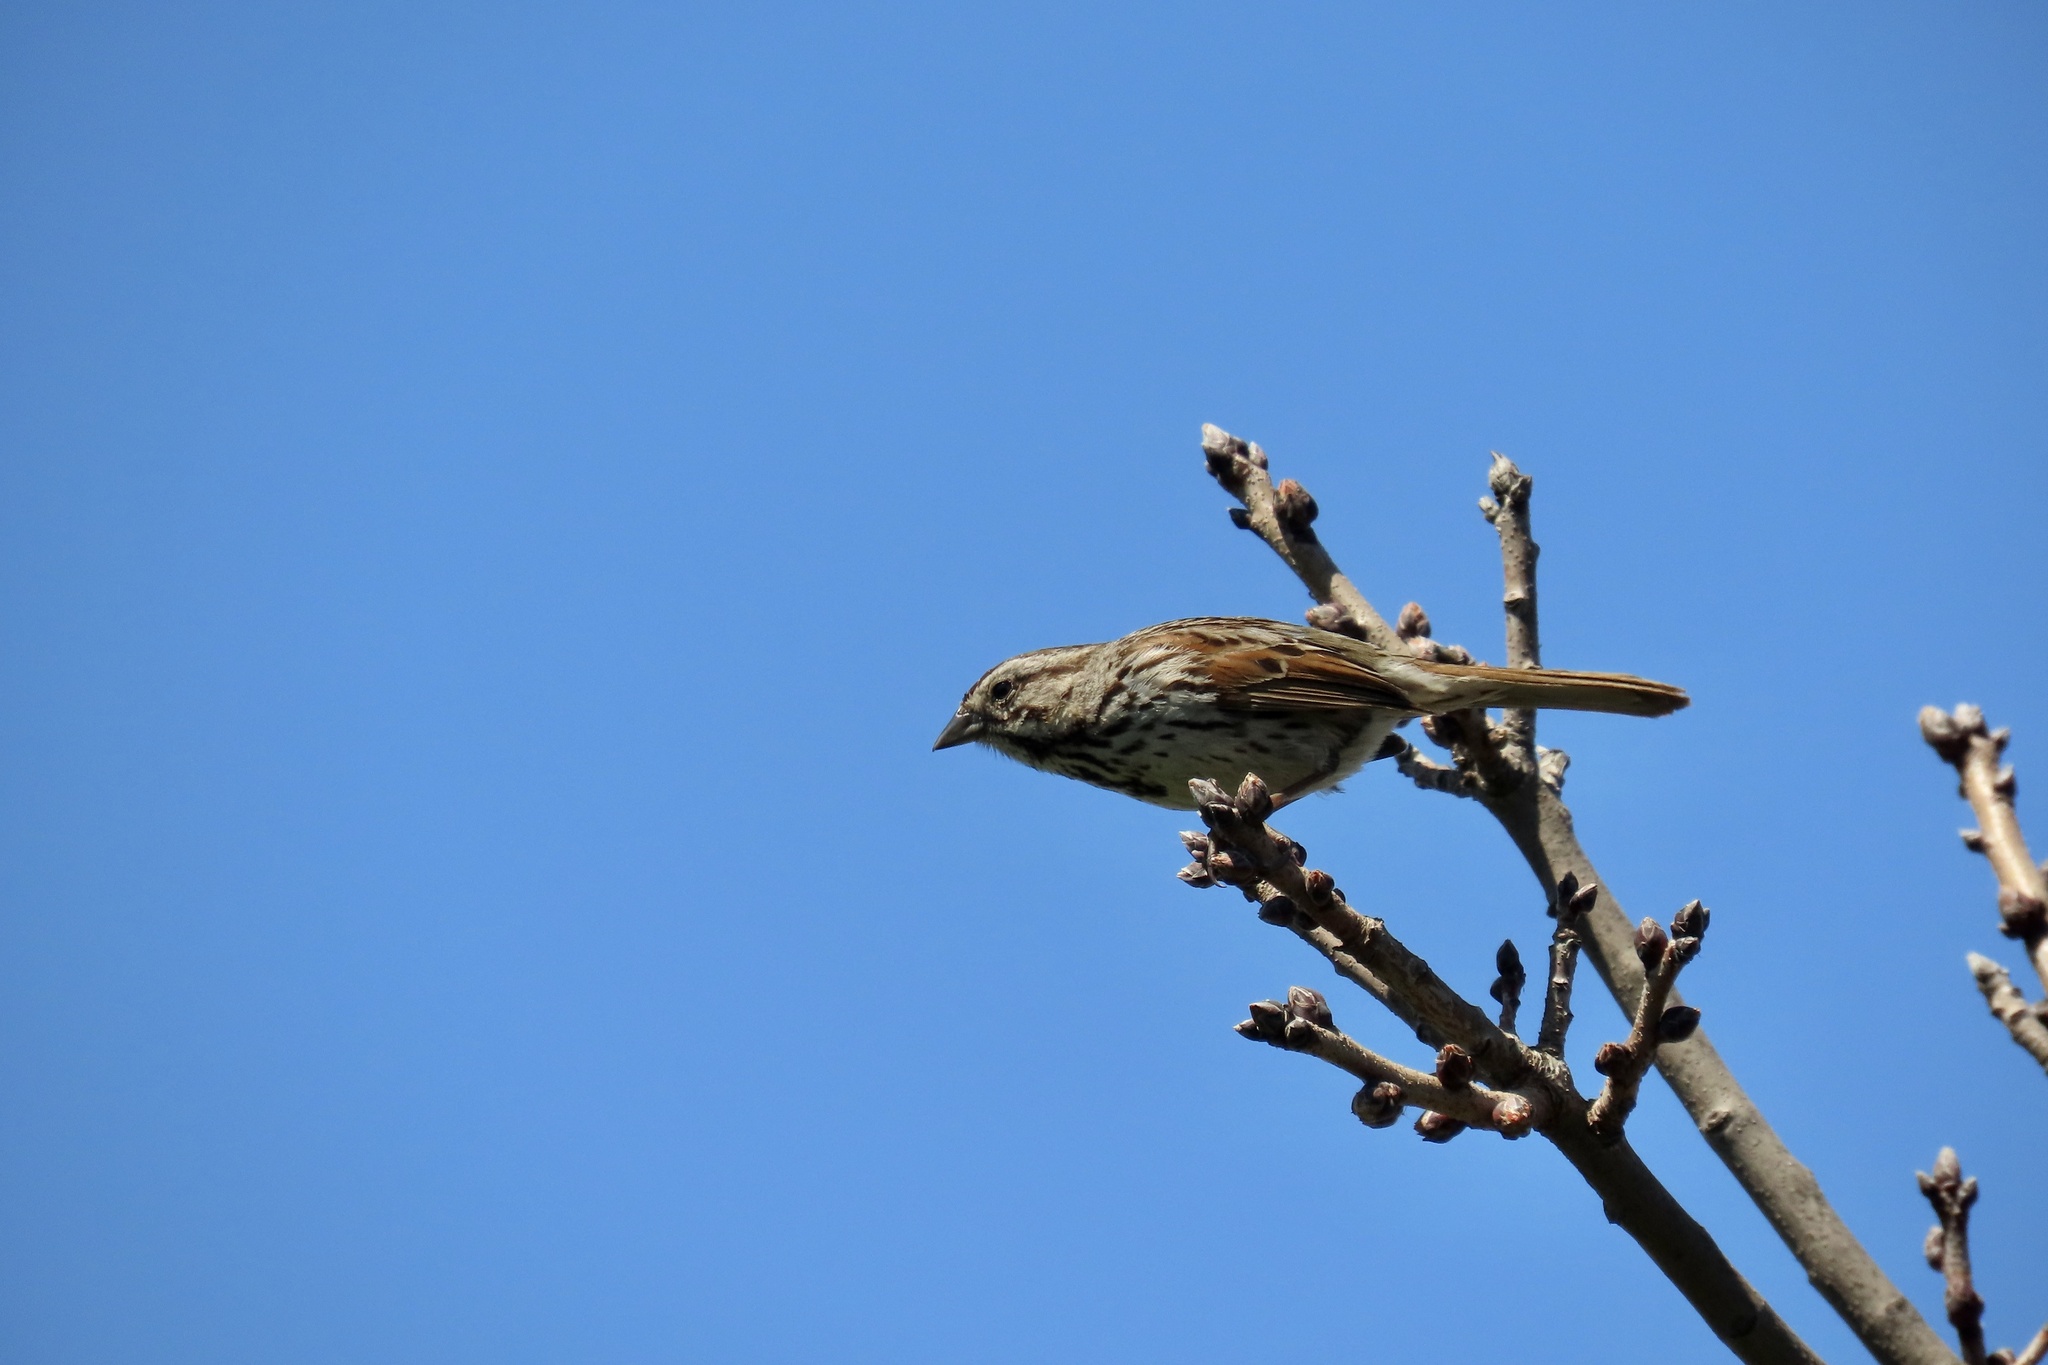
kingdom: Animalia
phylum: Chordata
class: Aves
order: Passeriformes
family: Passerellidae
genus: Melospiza
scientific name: Melospiza melodia
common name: Song sparrow
